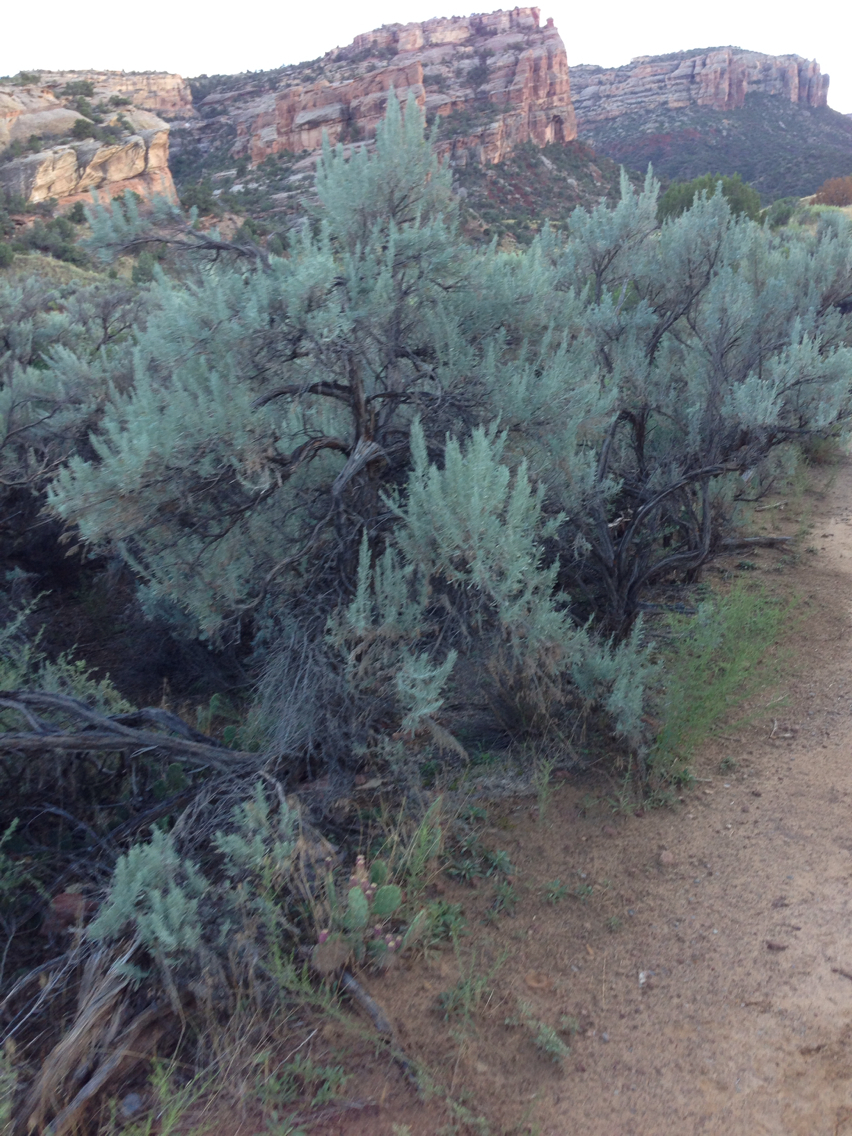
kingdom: Plantae
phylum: Tracheophyta
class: Magnoliopsida
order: Asterales
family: Asteraceae
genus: Artemisia
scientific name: Artemisia tridentata
